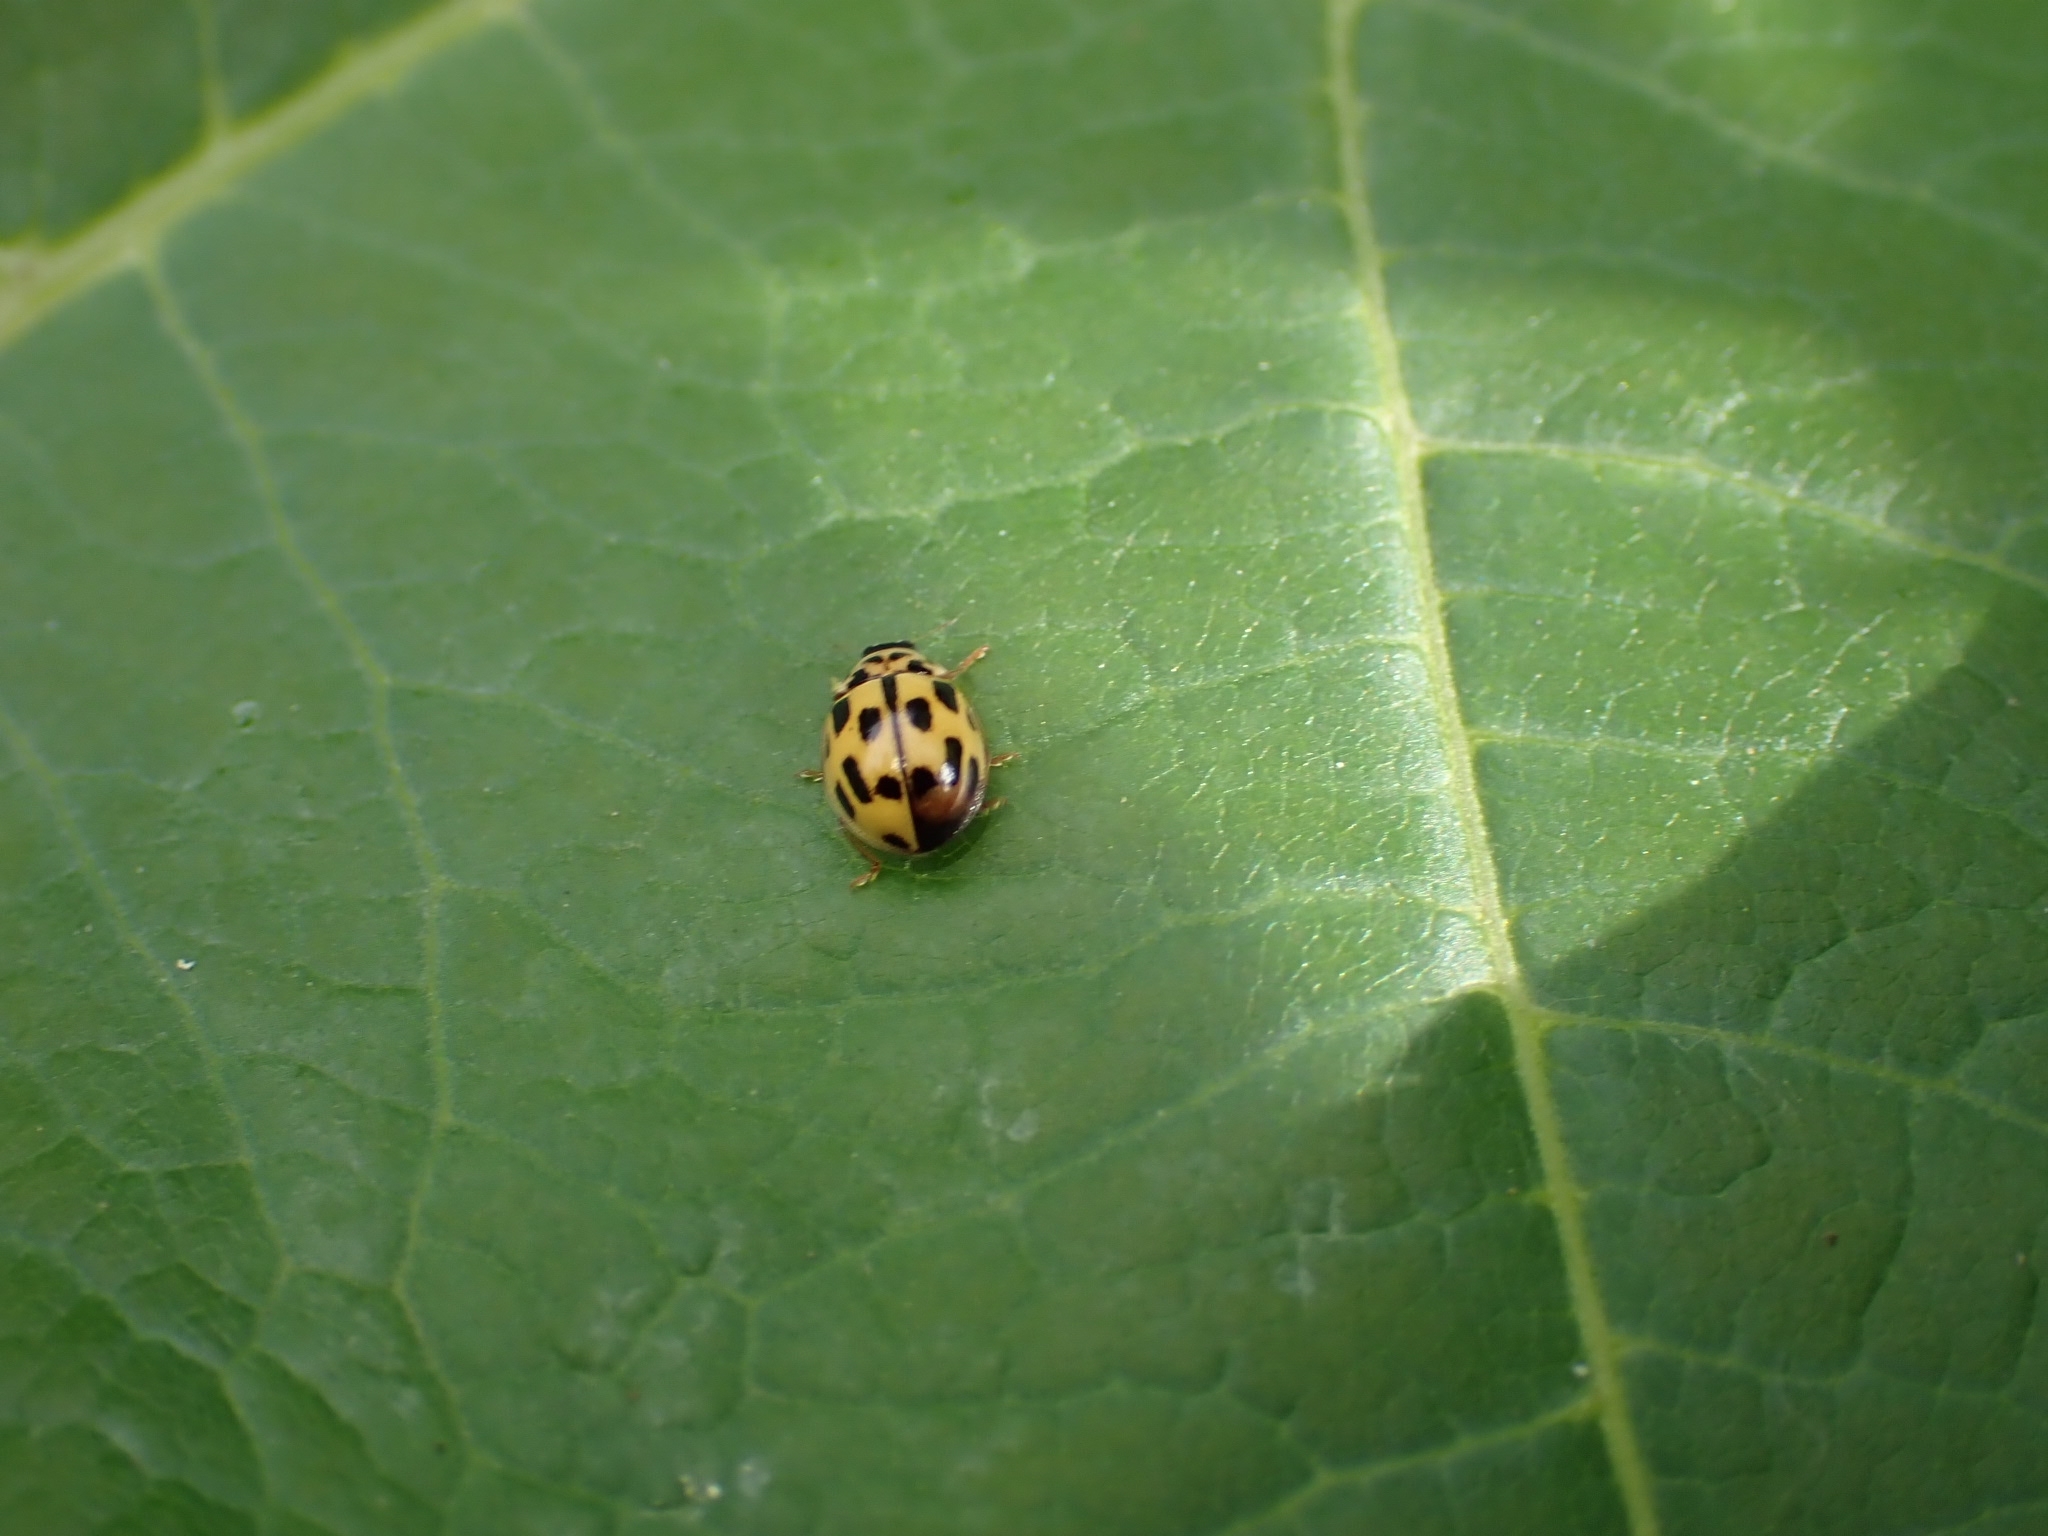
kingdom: Animalia
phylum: Arthropoda
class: Insecta
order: Coleoptera
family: Coccinellidae
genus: Propylaea
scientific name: Propylaea quatuordecimpunctata
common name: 14-spotted ladybird beetle
